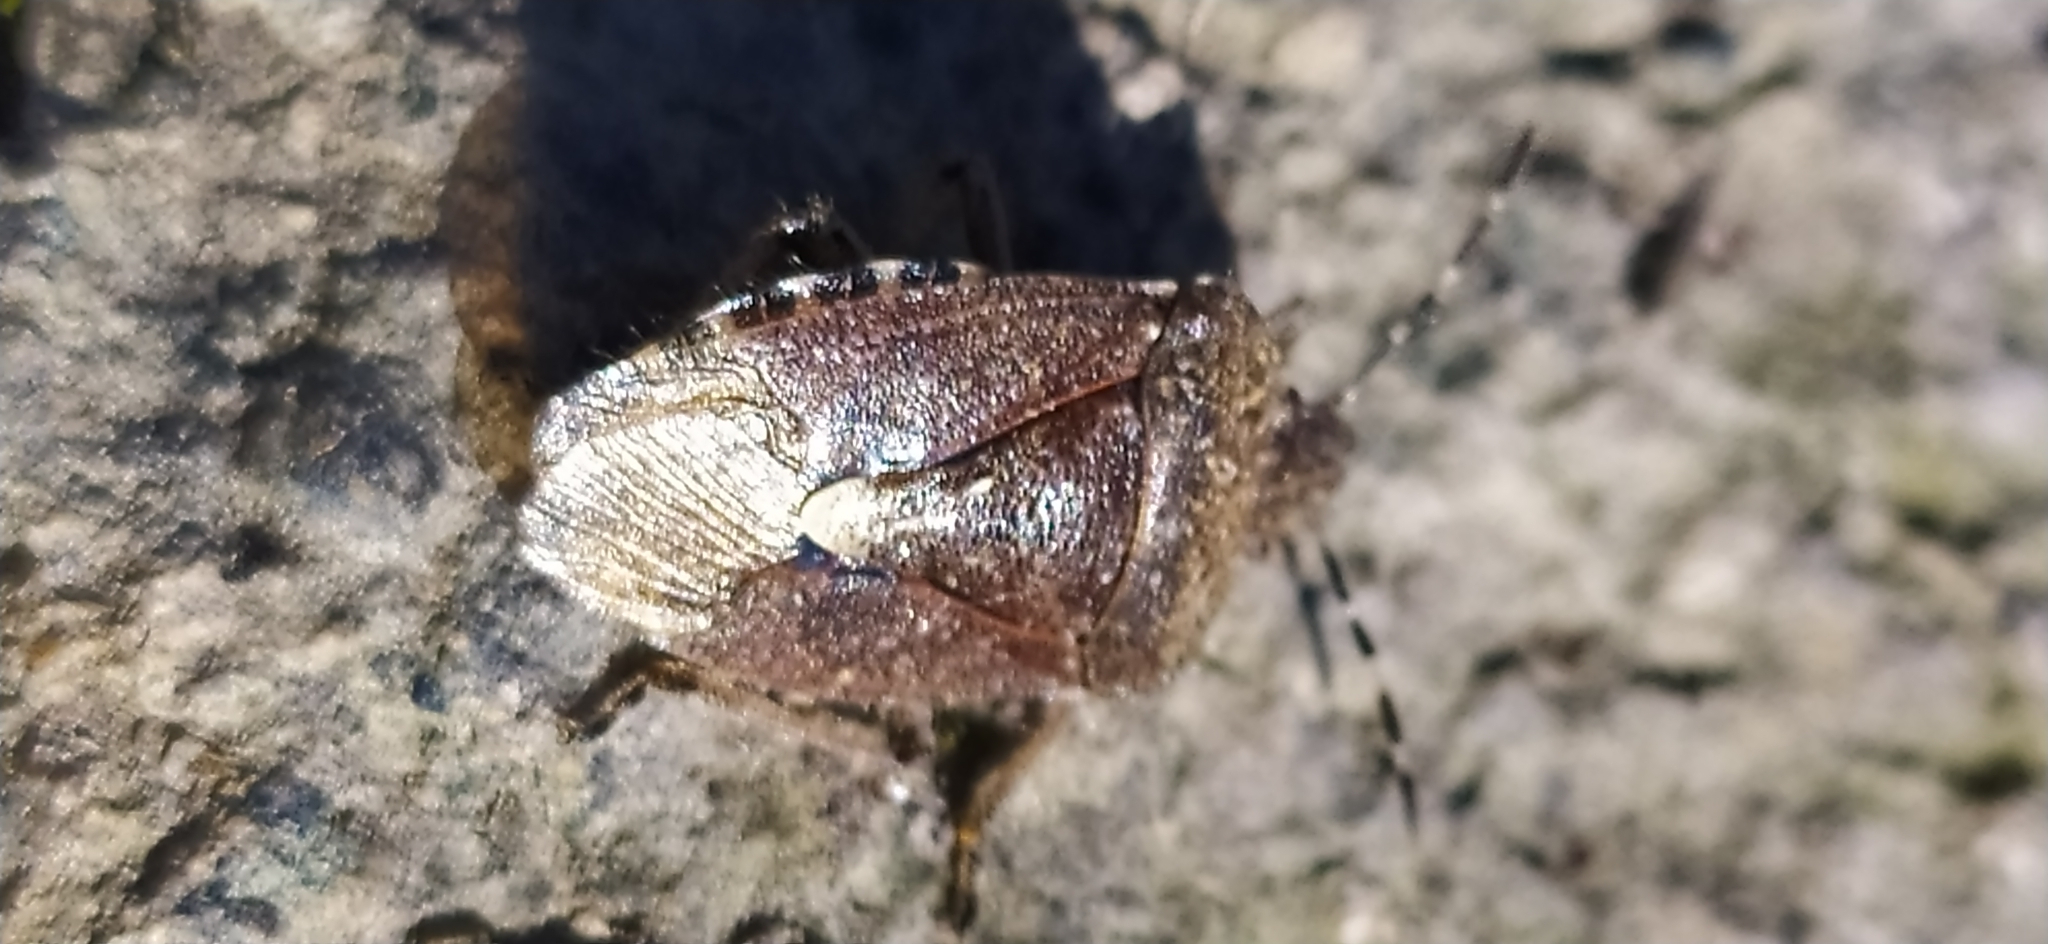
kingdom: Animalia
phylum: Arthropoda
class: Insecta
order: Hemiptera
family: Pentatomidae
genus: Dolycoris
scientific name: Dolycoris baccarum
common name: Sloe bug
